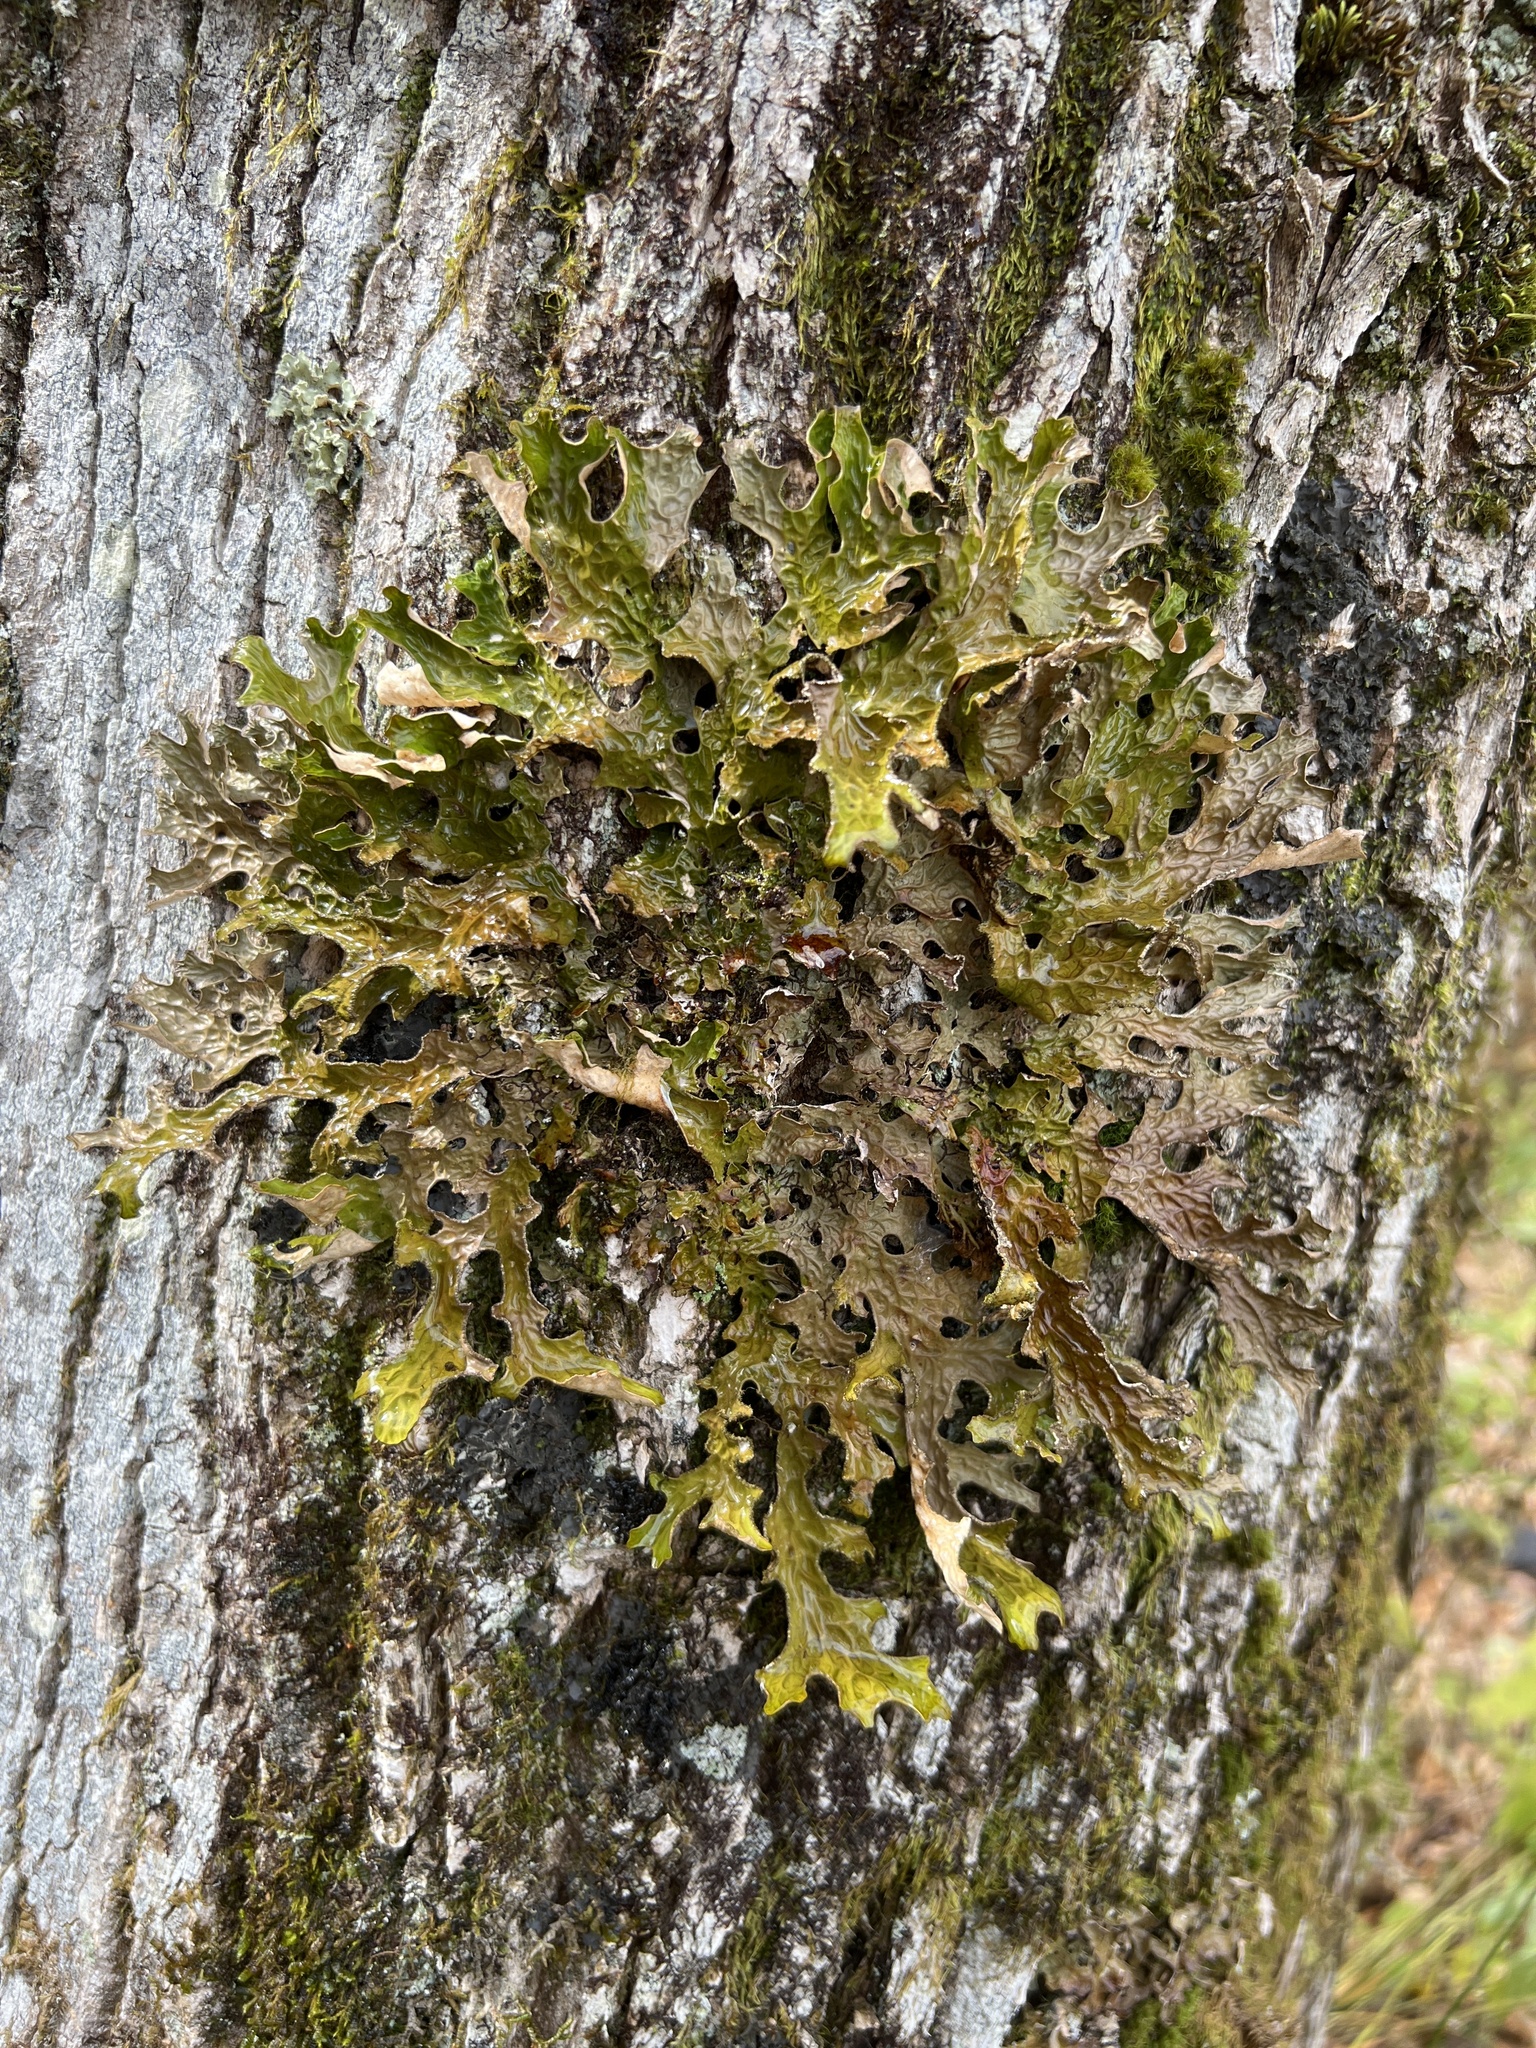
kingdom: Fungi
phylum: Ascomycota
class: Lecanoromycetes
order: Peltigerales
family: Lobariaceae
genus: Lobaria
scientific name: Lobaria pulmonaria
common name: Lungwort
